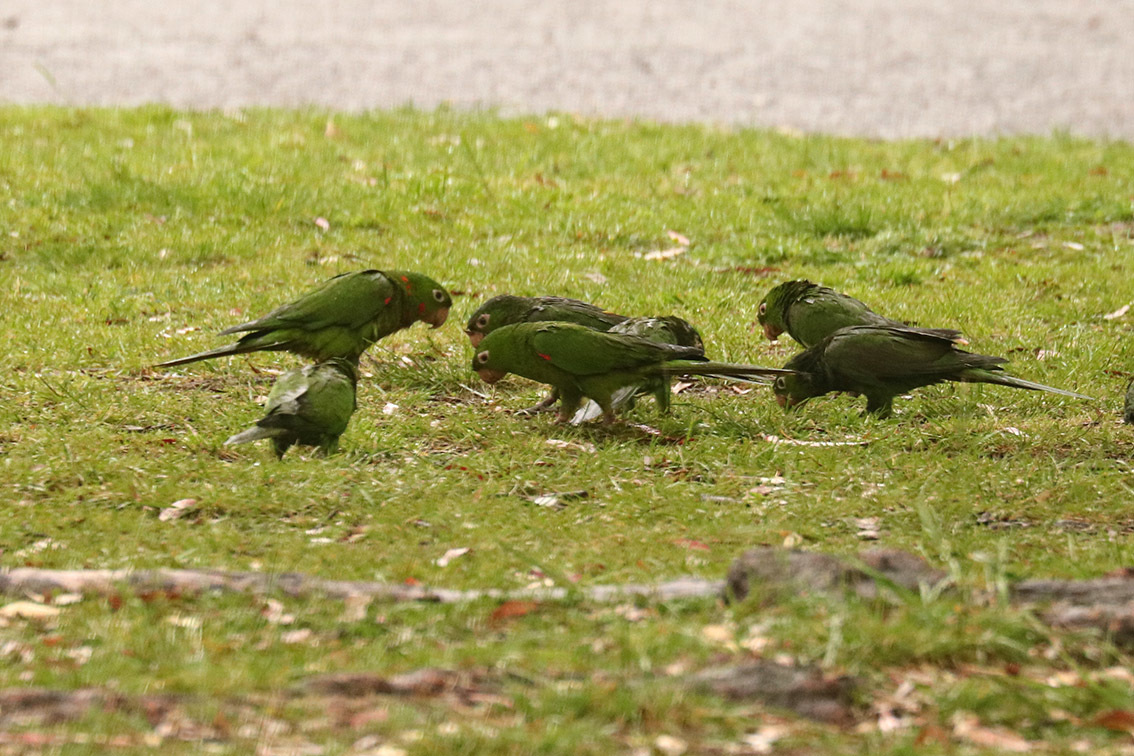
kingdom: Animalia
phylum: Chordata
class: Aves
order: Psittaciformes
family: Psittacidae
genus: Aratinga
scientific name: Aratinga leucophthalma
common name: White-eyed parakeet
